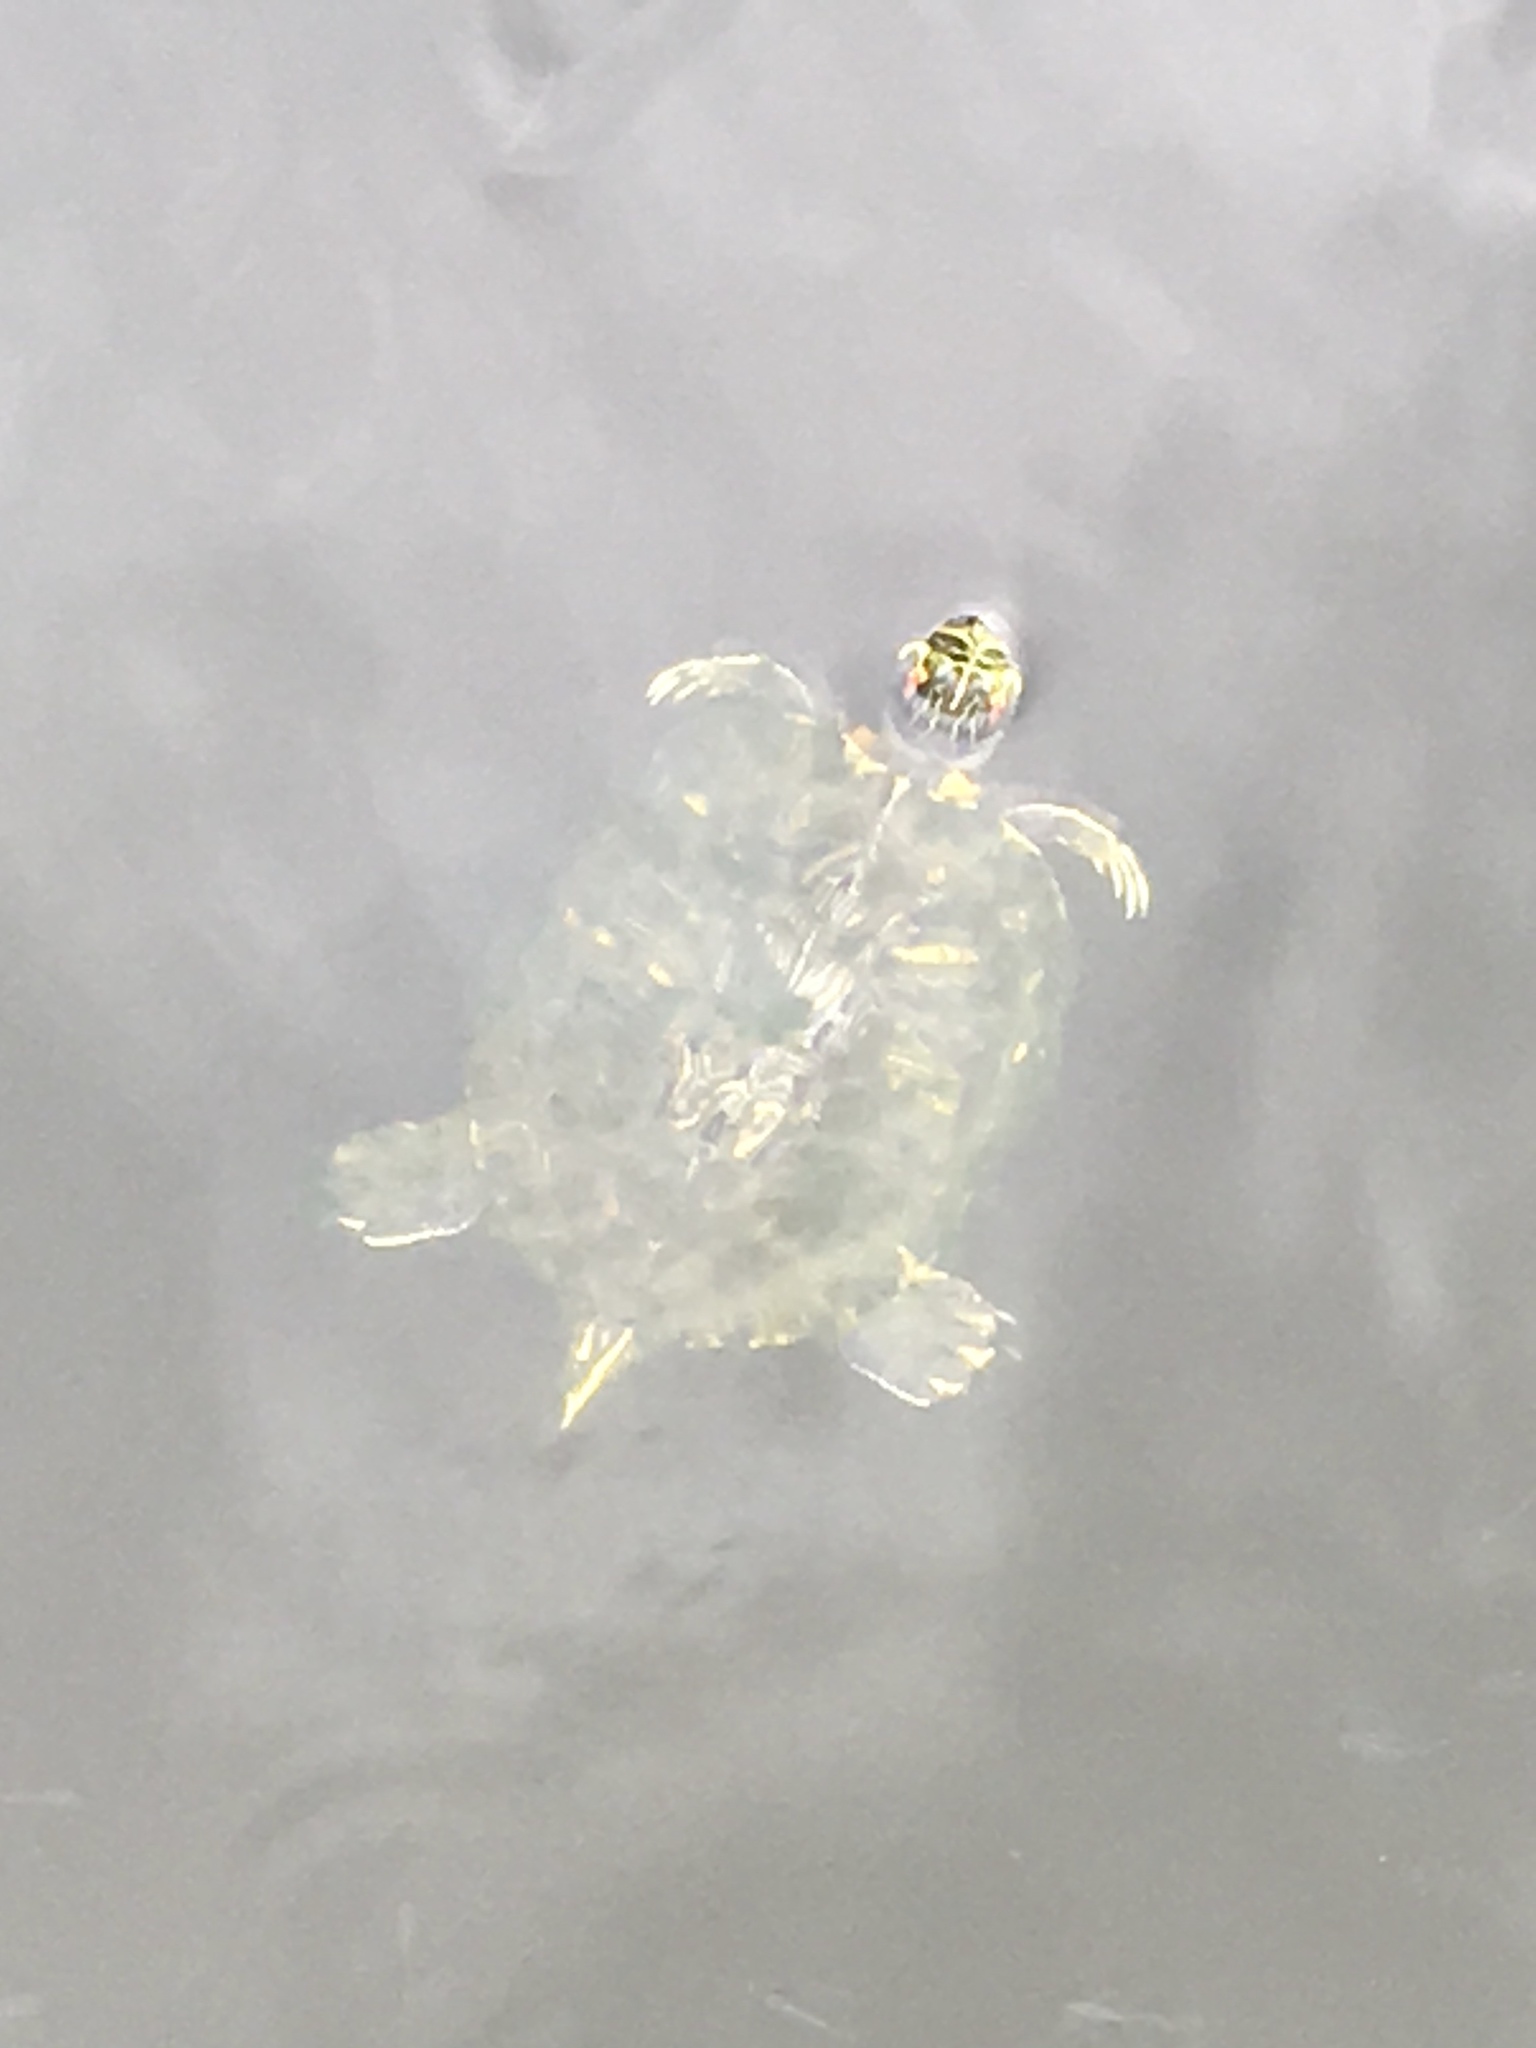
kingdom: Animalia
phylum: Chordata
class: Testudines
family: Emydidae
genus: Trachemys
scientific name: Trachemys scripta
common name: Slider
